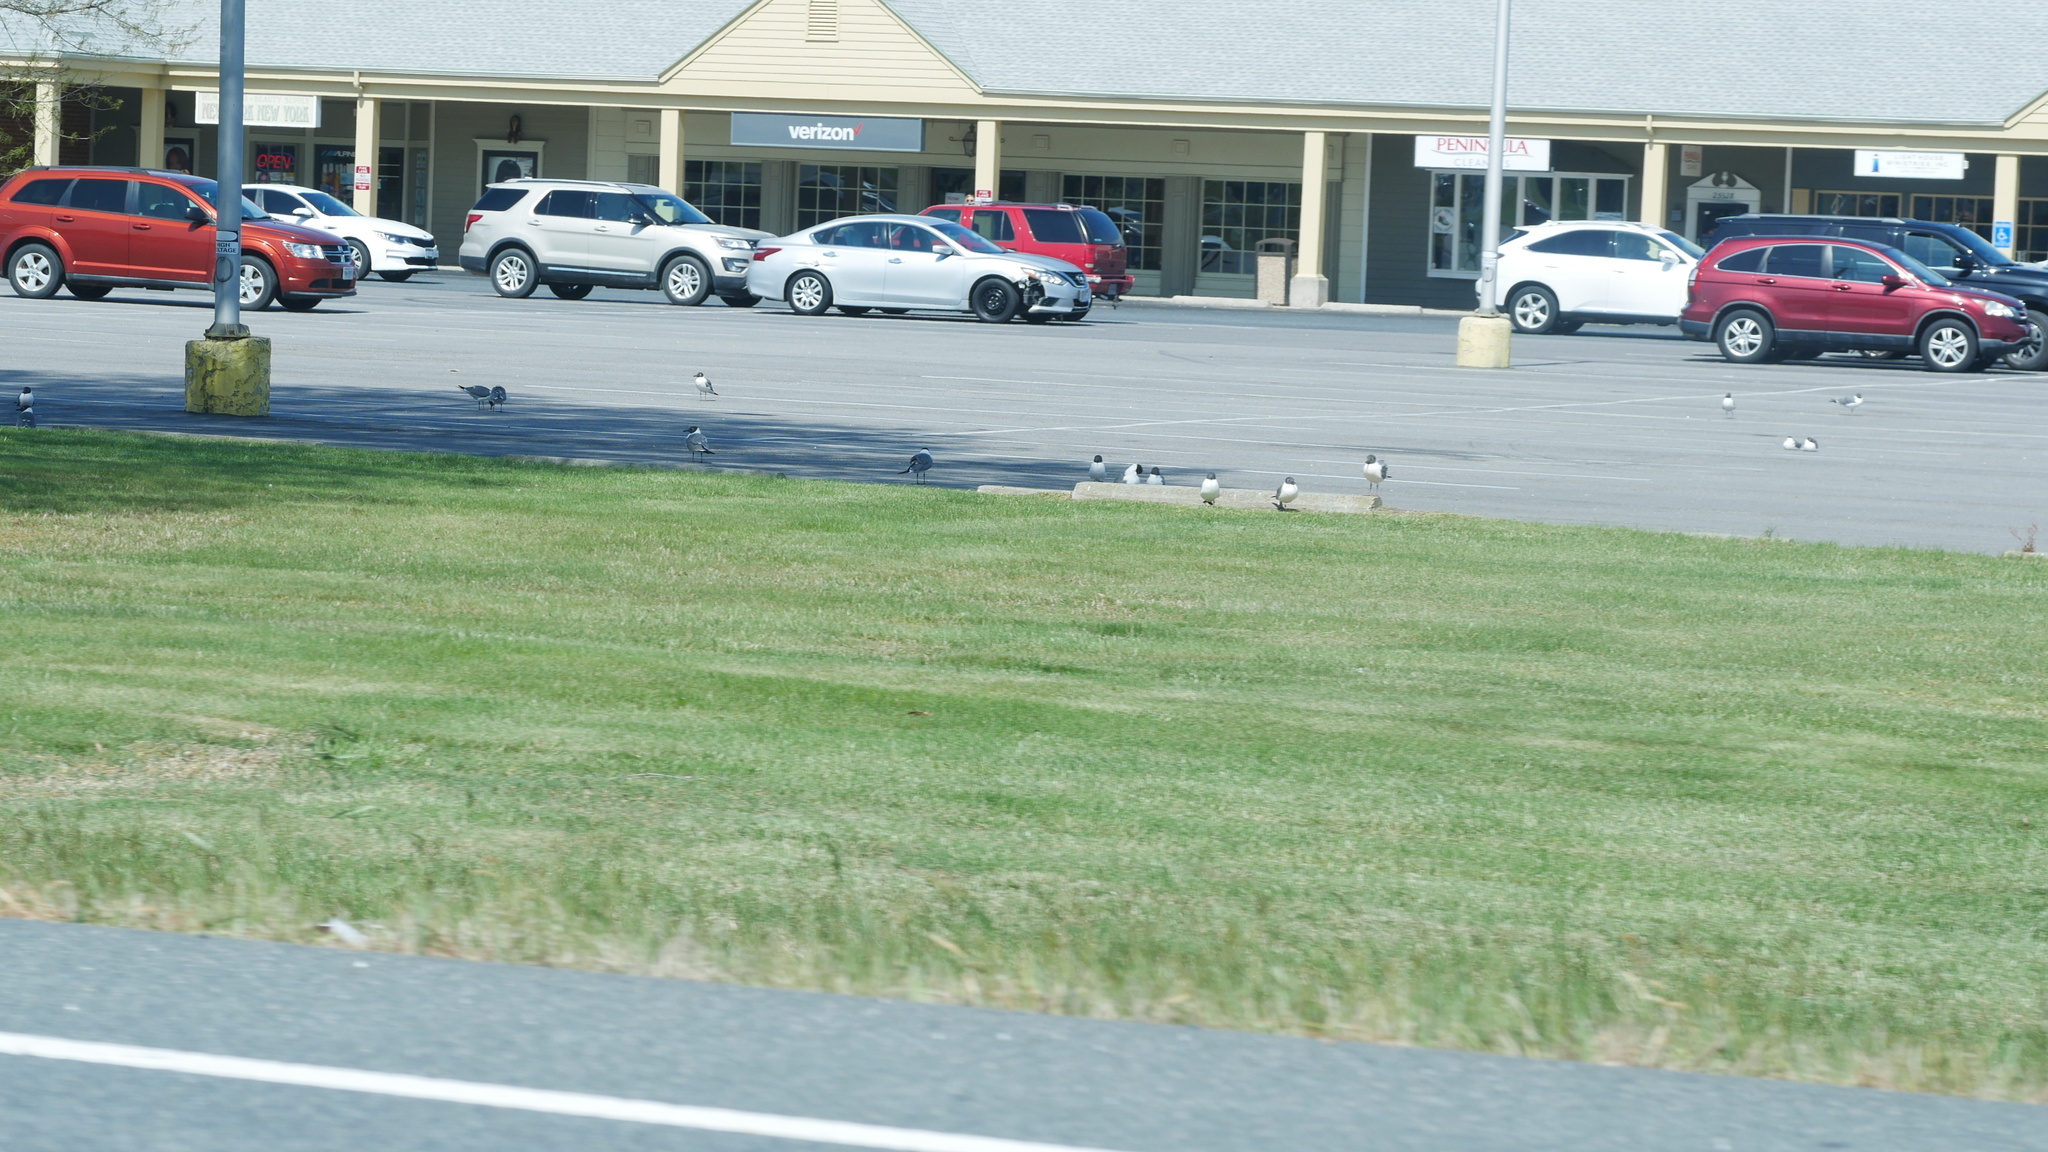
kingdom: Animalia
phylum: Chordata
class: Aves
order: Charadriiformes
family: Laridae
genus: Leucophaeus
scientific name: Leucophaeus atricilla
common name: Laughing gull
